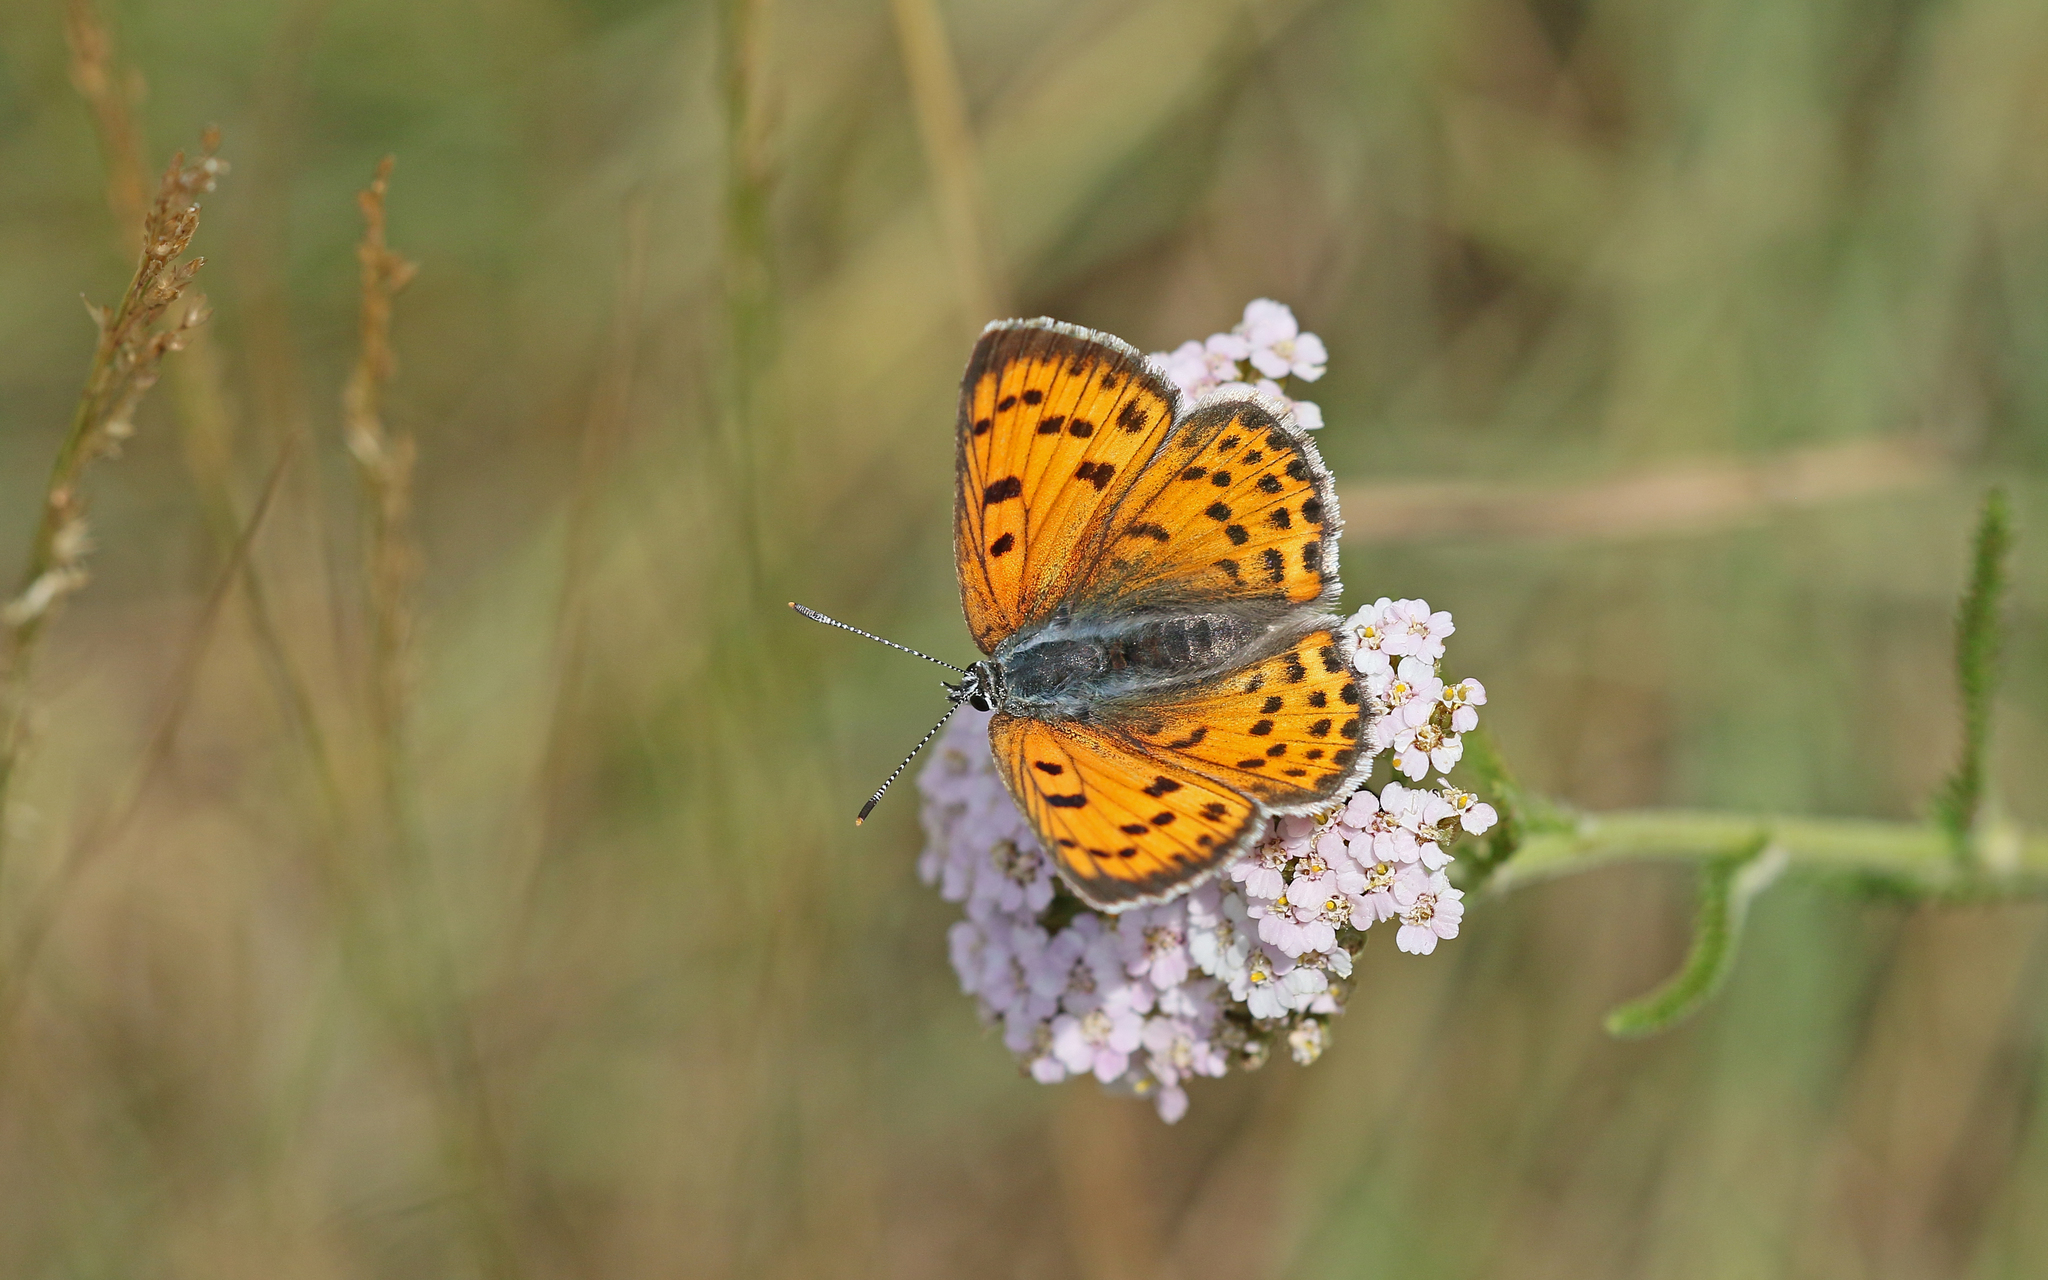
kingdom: Animalia
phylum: Arthropoda
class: Insecta
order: Lepidoptera
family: Lycaenidae
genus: Lycaena
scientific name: Lycaena alciphron
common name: Purple-shot copper
